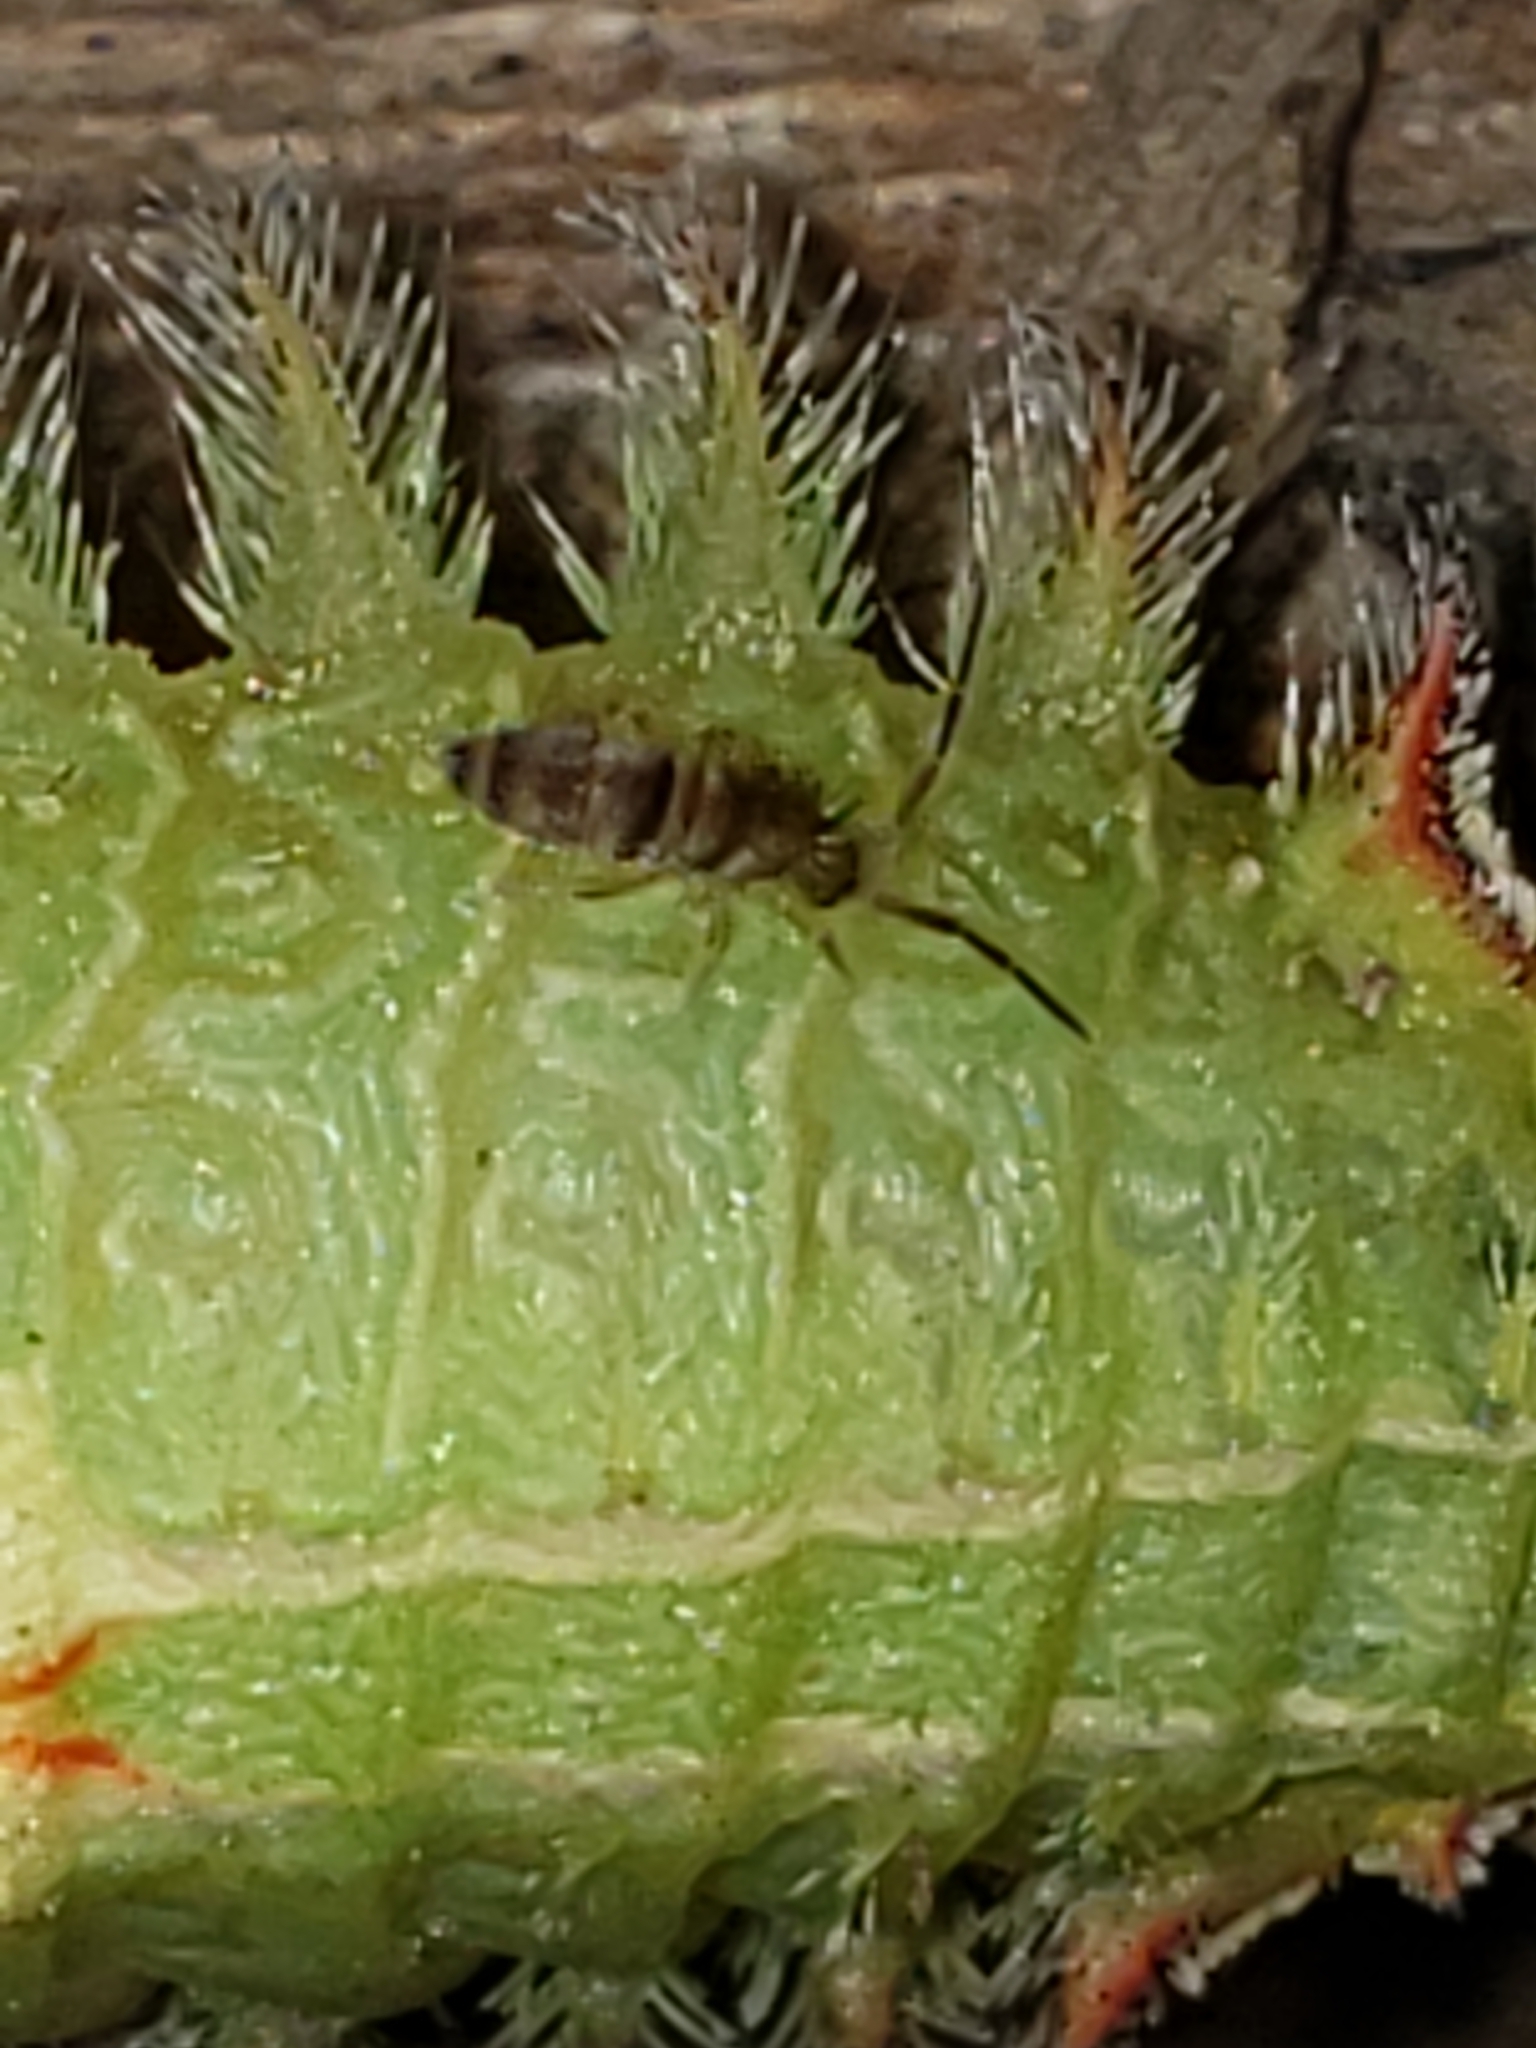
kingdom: Animalia
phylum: Arthropoda
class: Collembola
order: Entomobryomorpha
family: Entomobryidae
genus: Homidia
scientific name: Homidia sauteri
